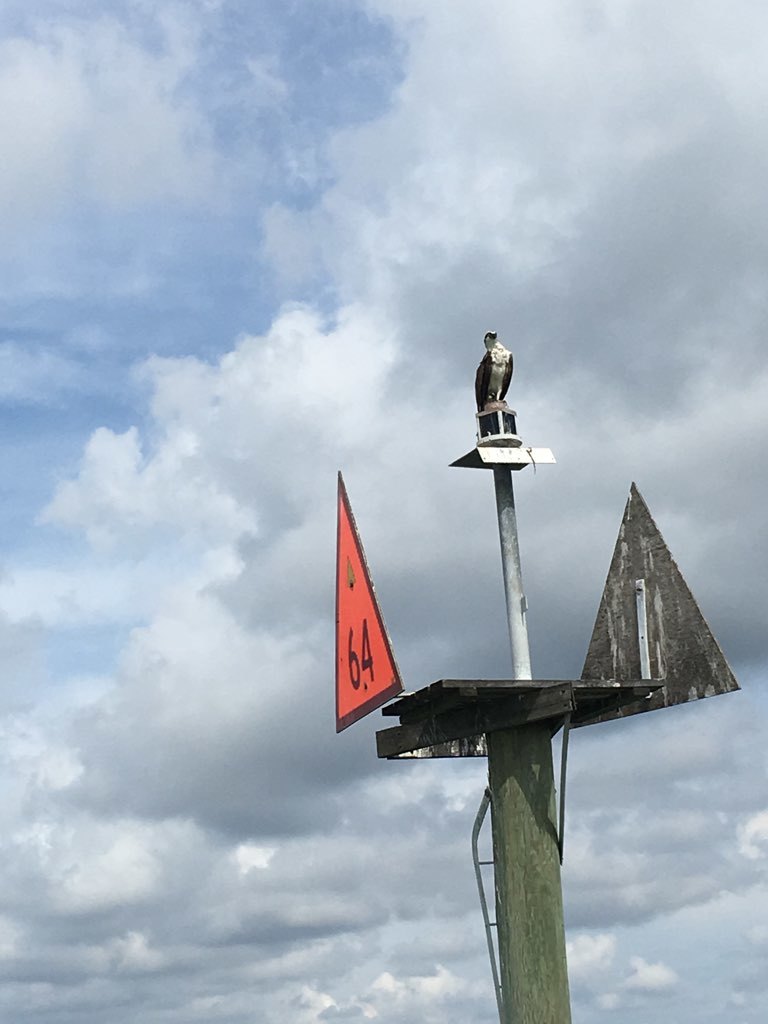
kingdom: Animalia
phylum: Chordata
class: Aves
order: Accipitriformes
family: Pandionidae
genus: Pandion
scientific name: Pandion haliaetus
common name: Osprey
